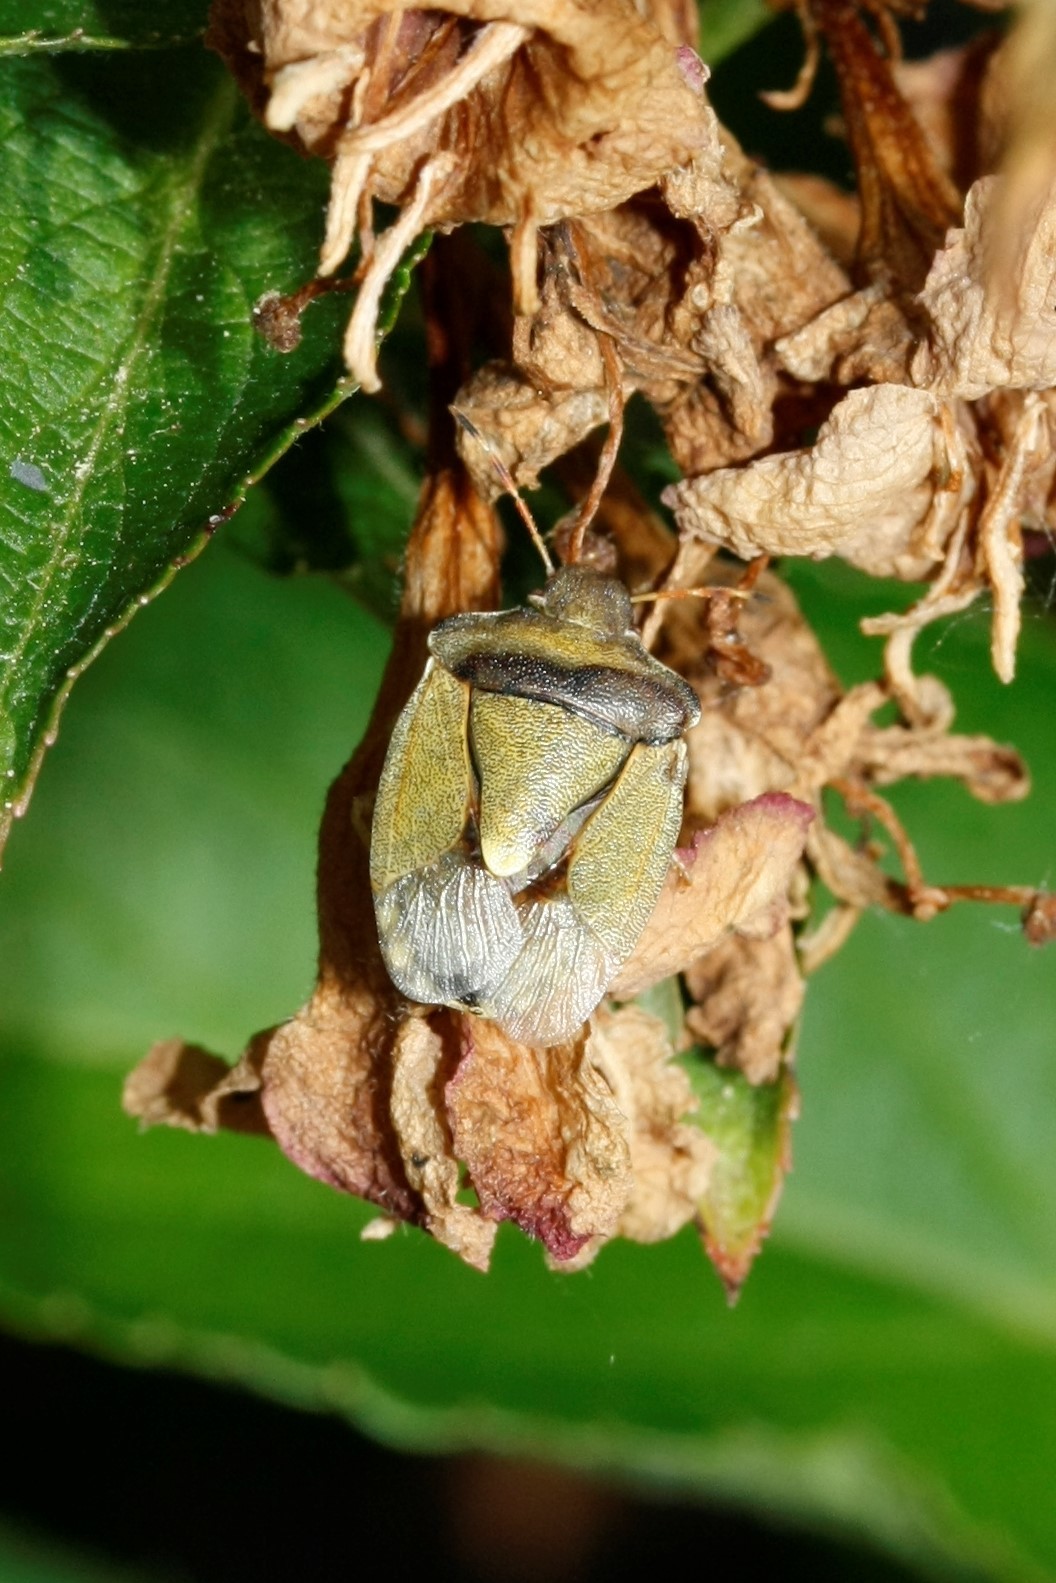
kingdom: Animalia
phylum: Arthropoda
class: Insecta
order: Hemiptera
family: Pentatomidae
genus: Holcostethus
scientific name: Holcostethus strictus
